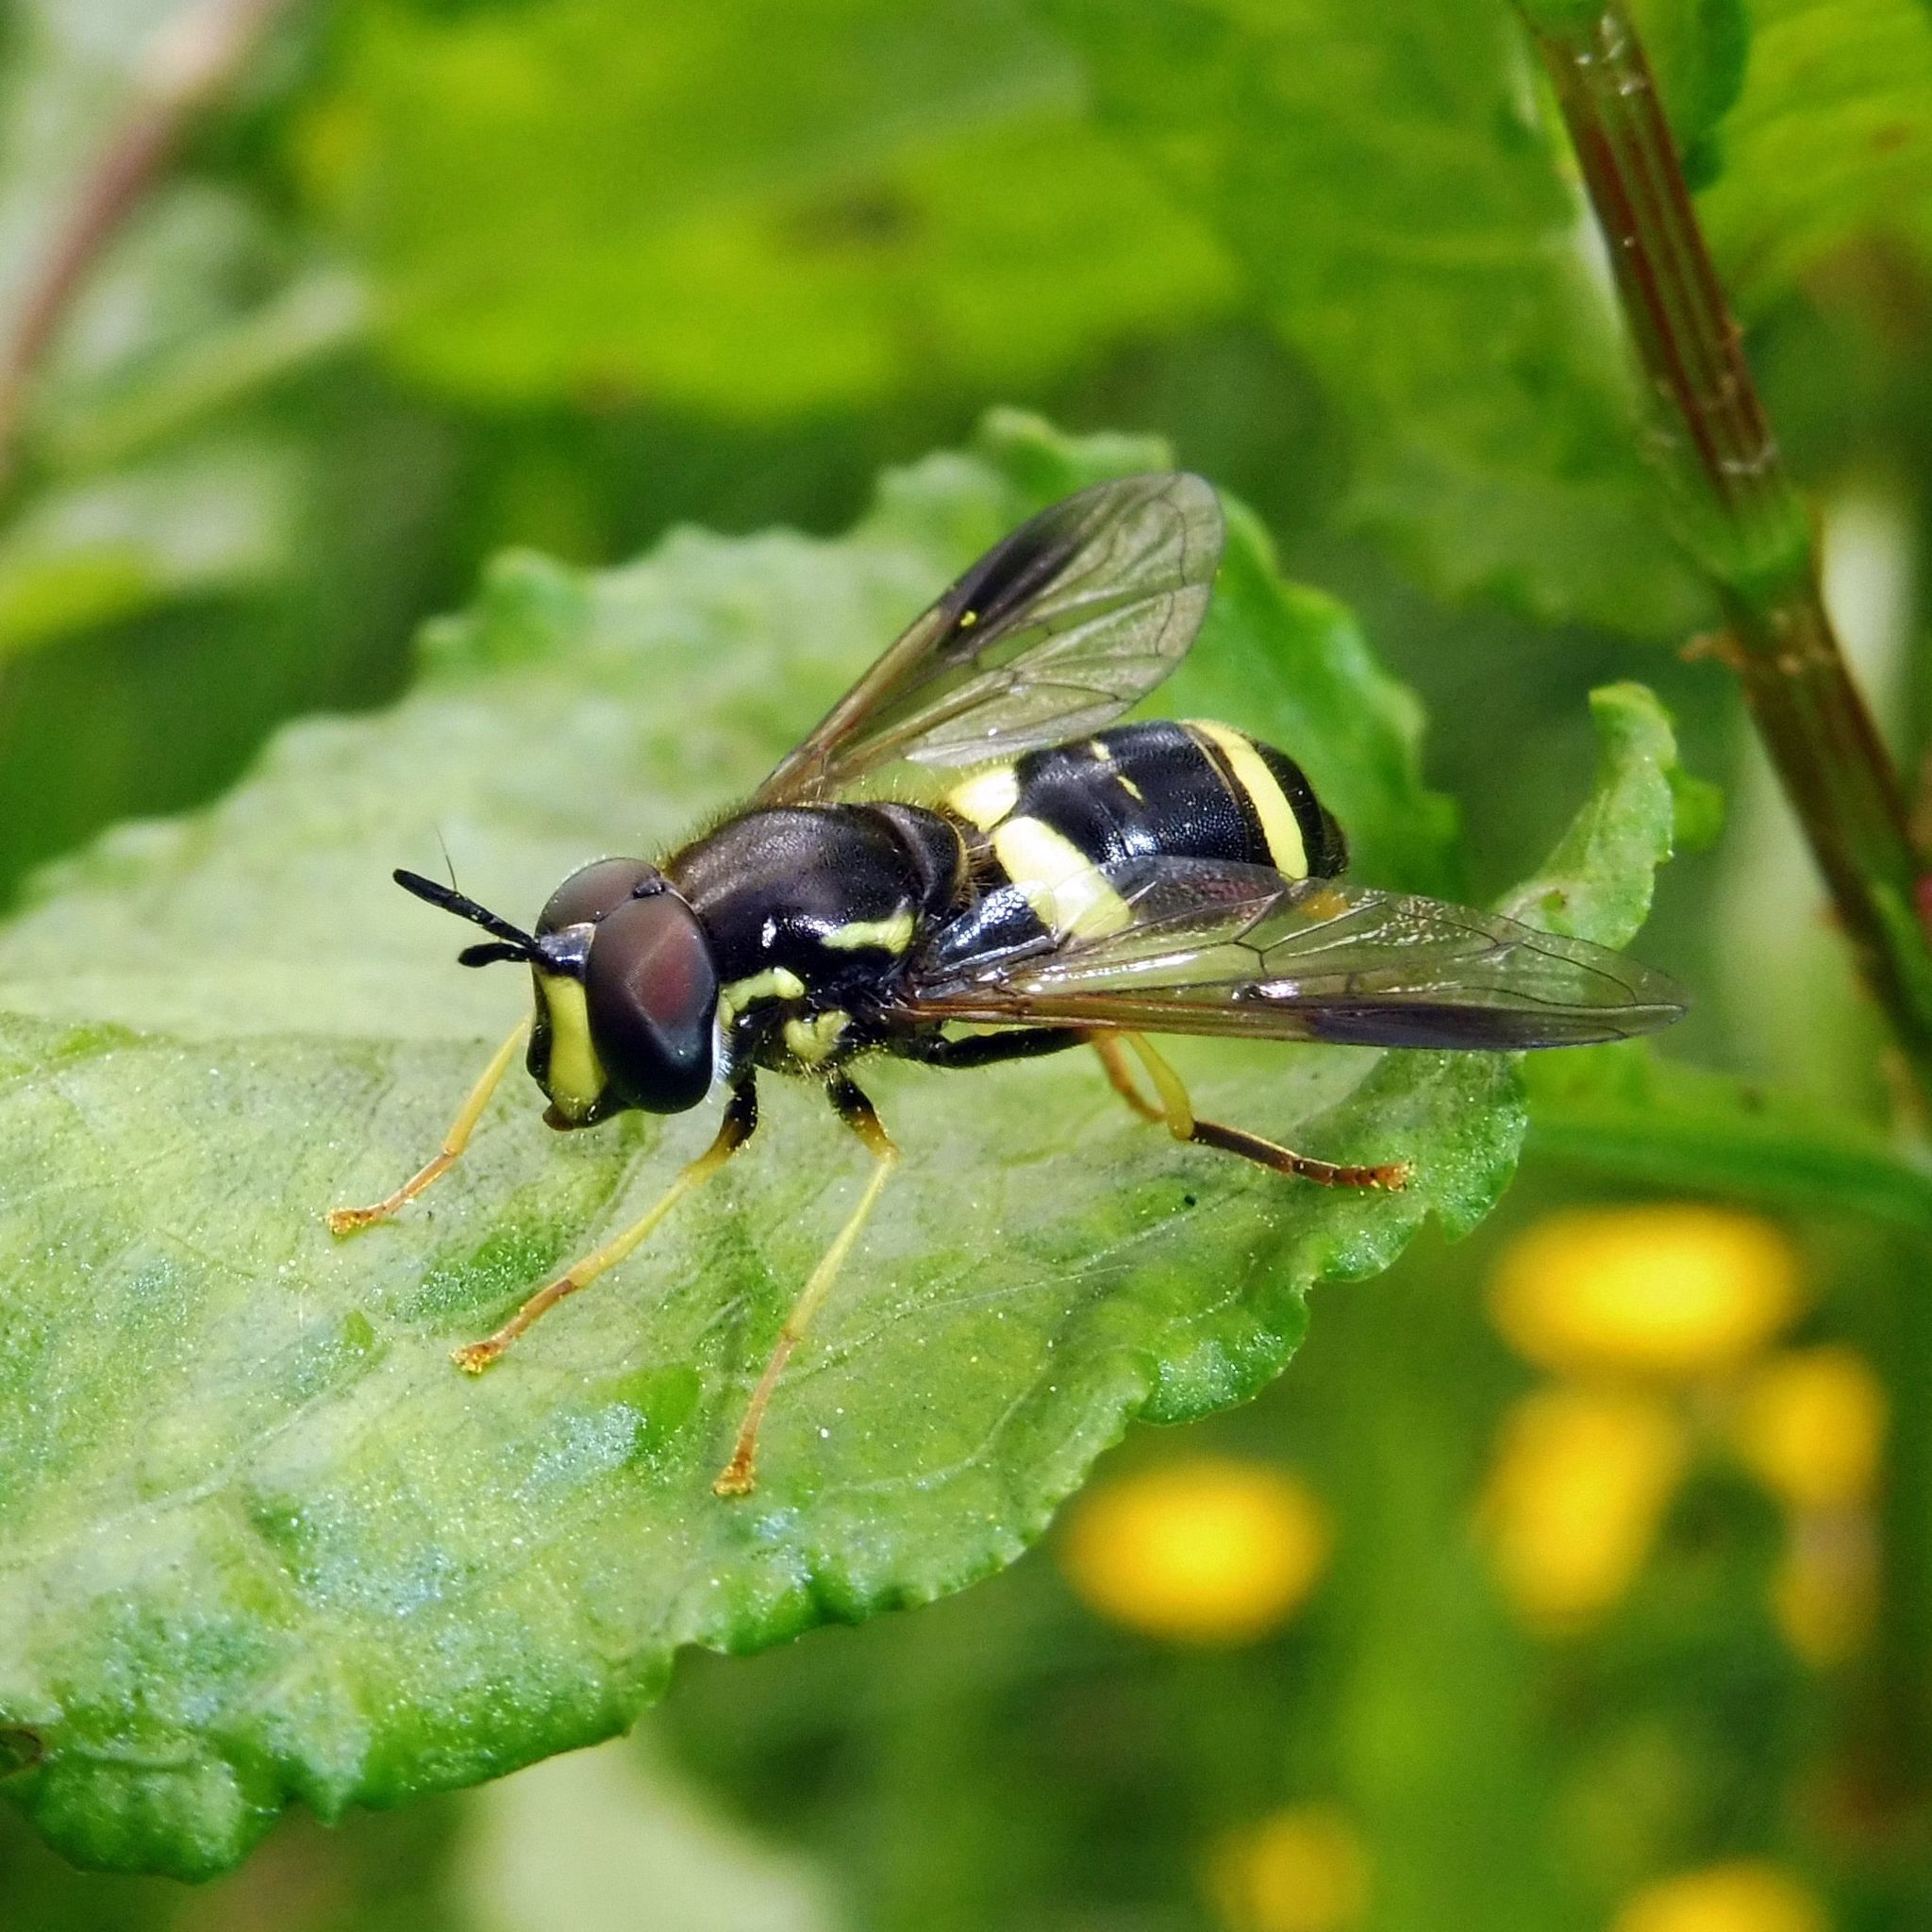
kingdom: Animalia
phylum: Arthropoda
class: Insecta
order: Diptera
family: Syrphidae
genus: Chrysotoxum
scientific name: Chrysotoxum bicincta
